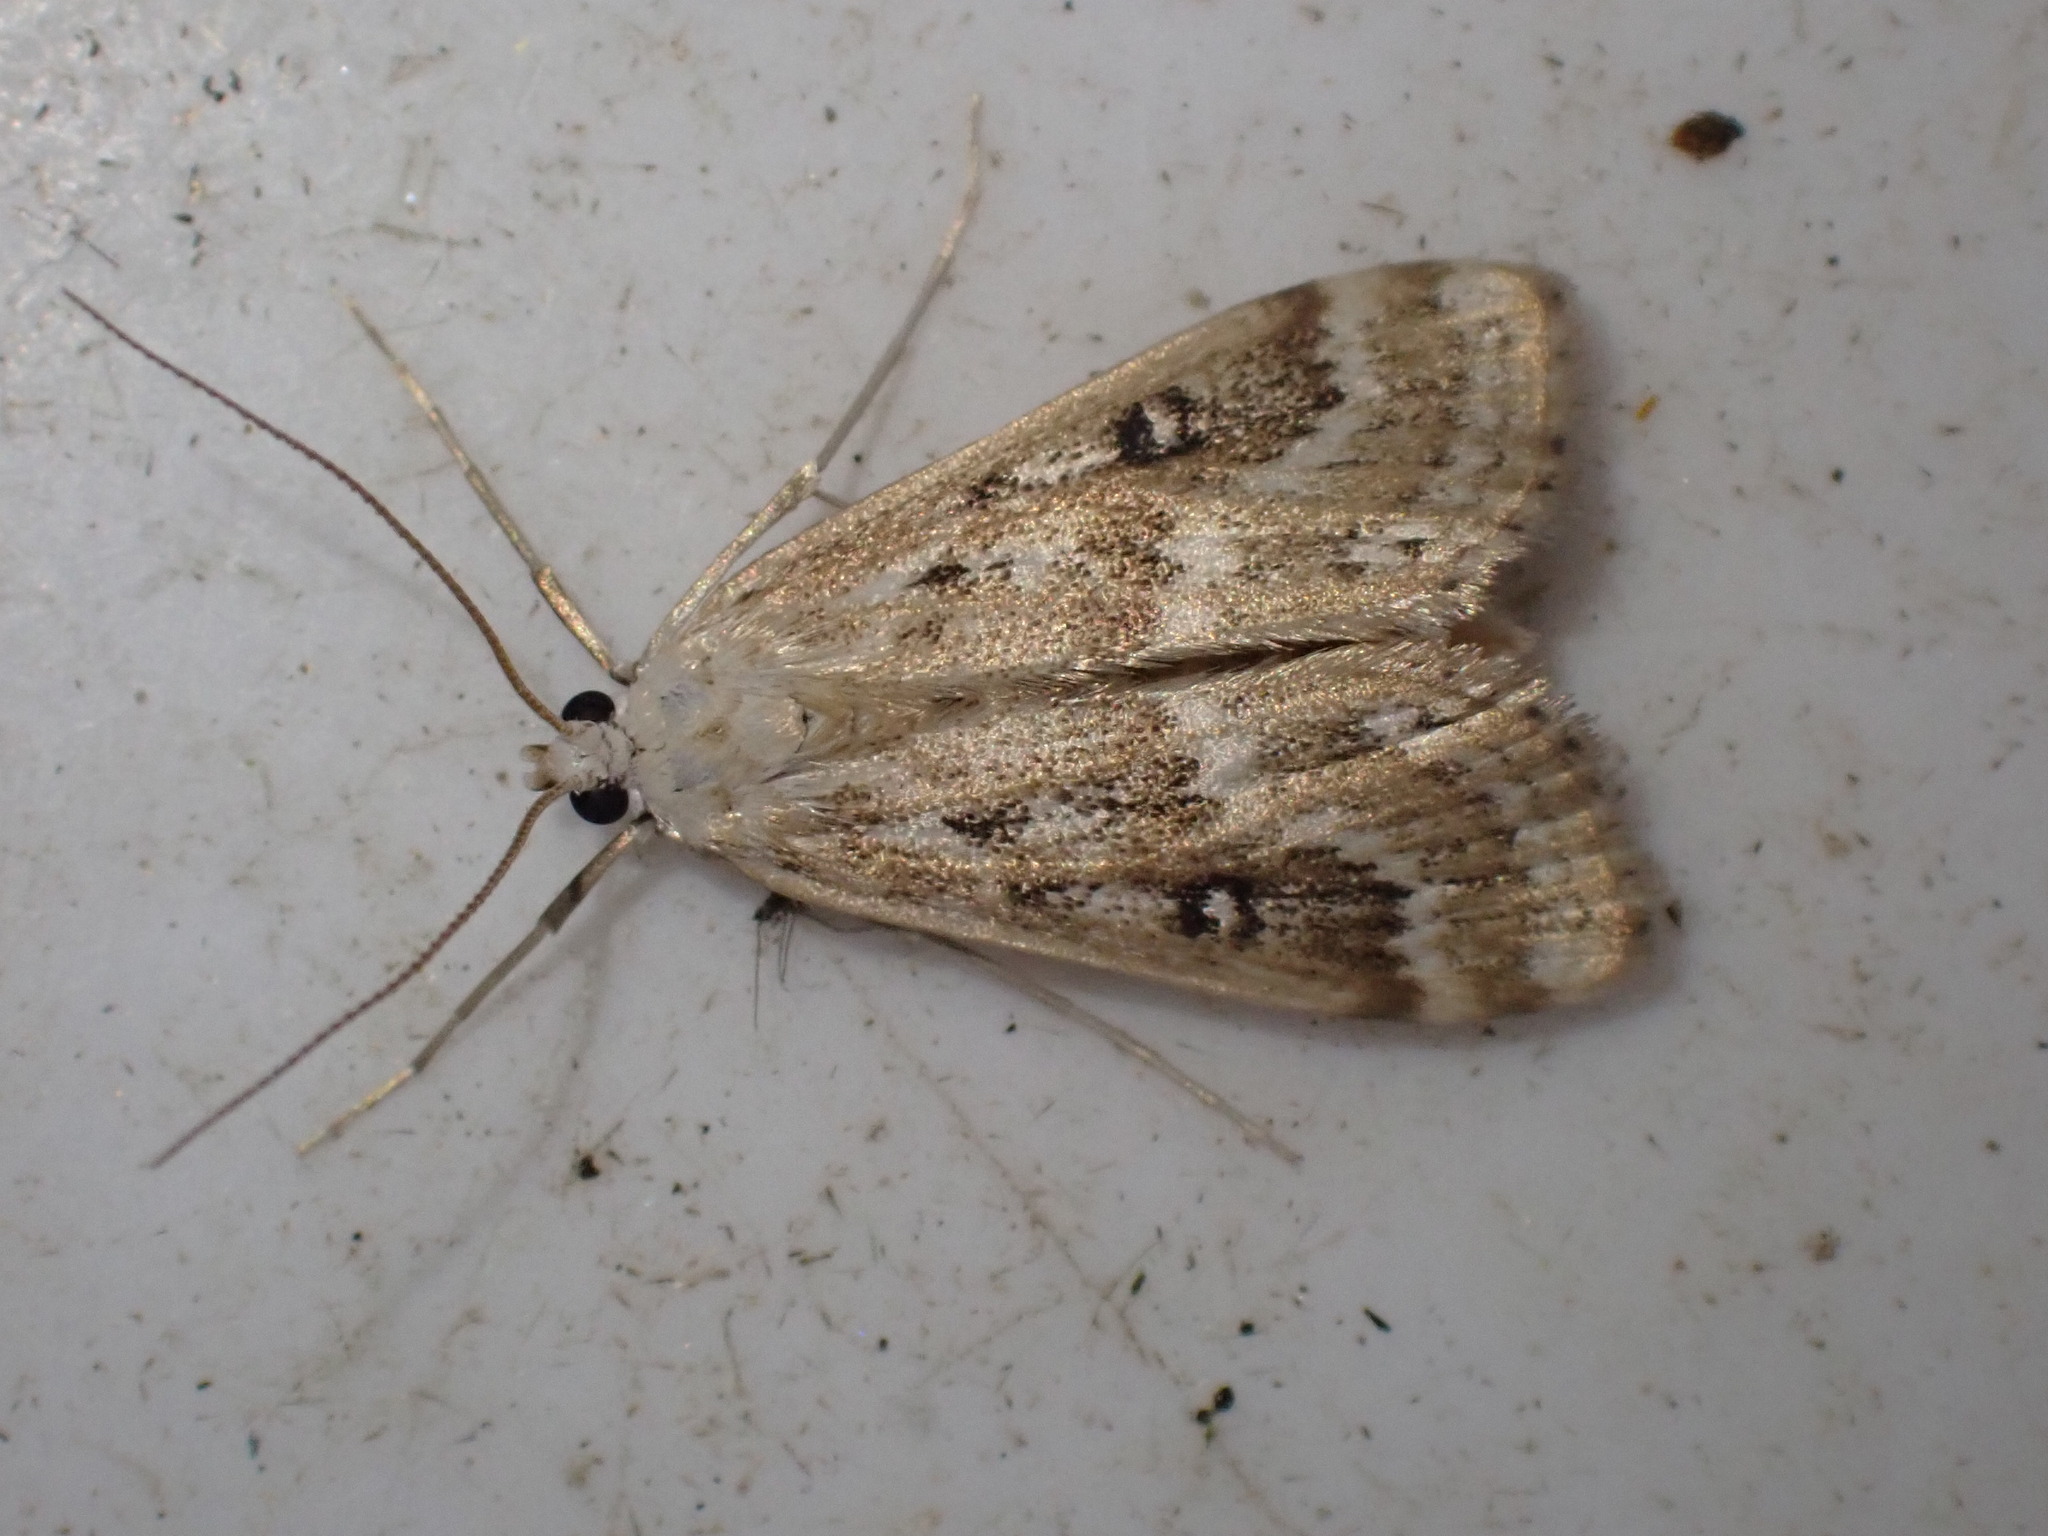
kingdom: Animalia
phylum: Arthropoda
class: Insecta
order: Lepidoptera
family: Crambidae
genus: Parapoynx
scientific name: Parapoynx stratiotata
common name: Ringed china-mark
